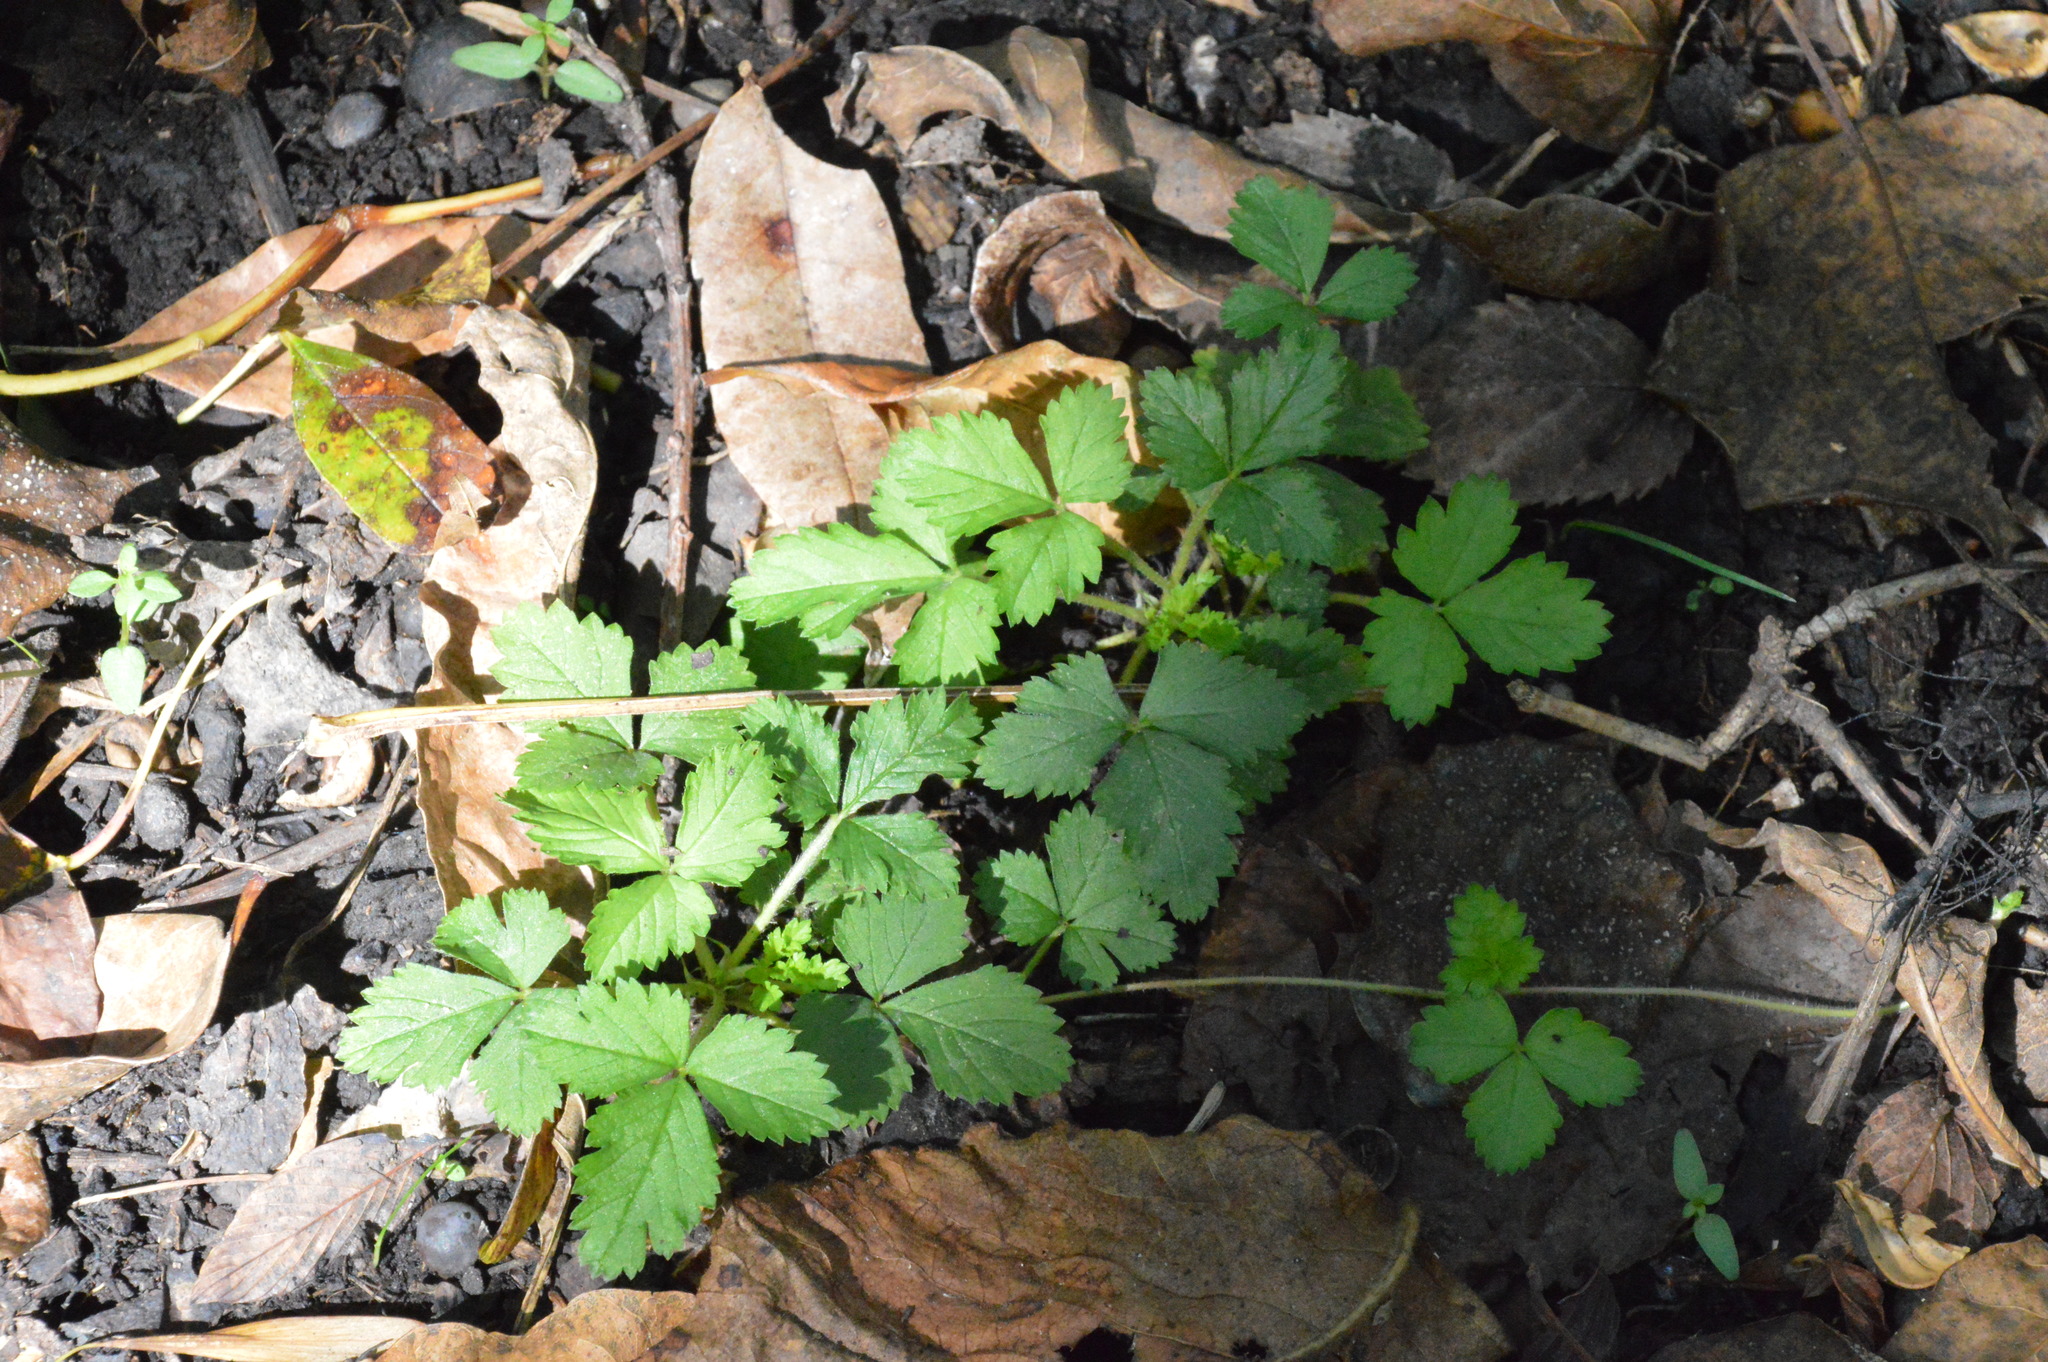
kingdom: Plantae
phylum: Tracheophyta
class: Magnoliopsida
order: Rosales
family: Rosaceae
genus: Potentilla
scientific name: Potentilla indica
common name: Yellow-flowered strawberry
